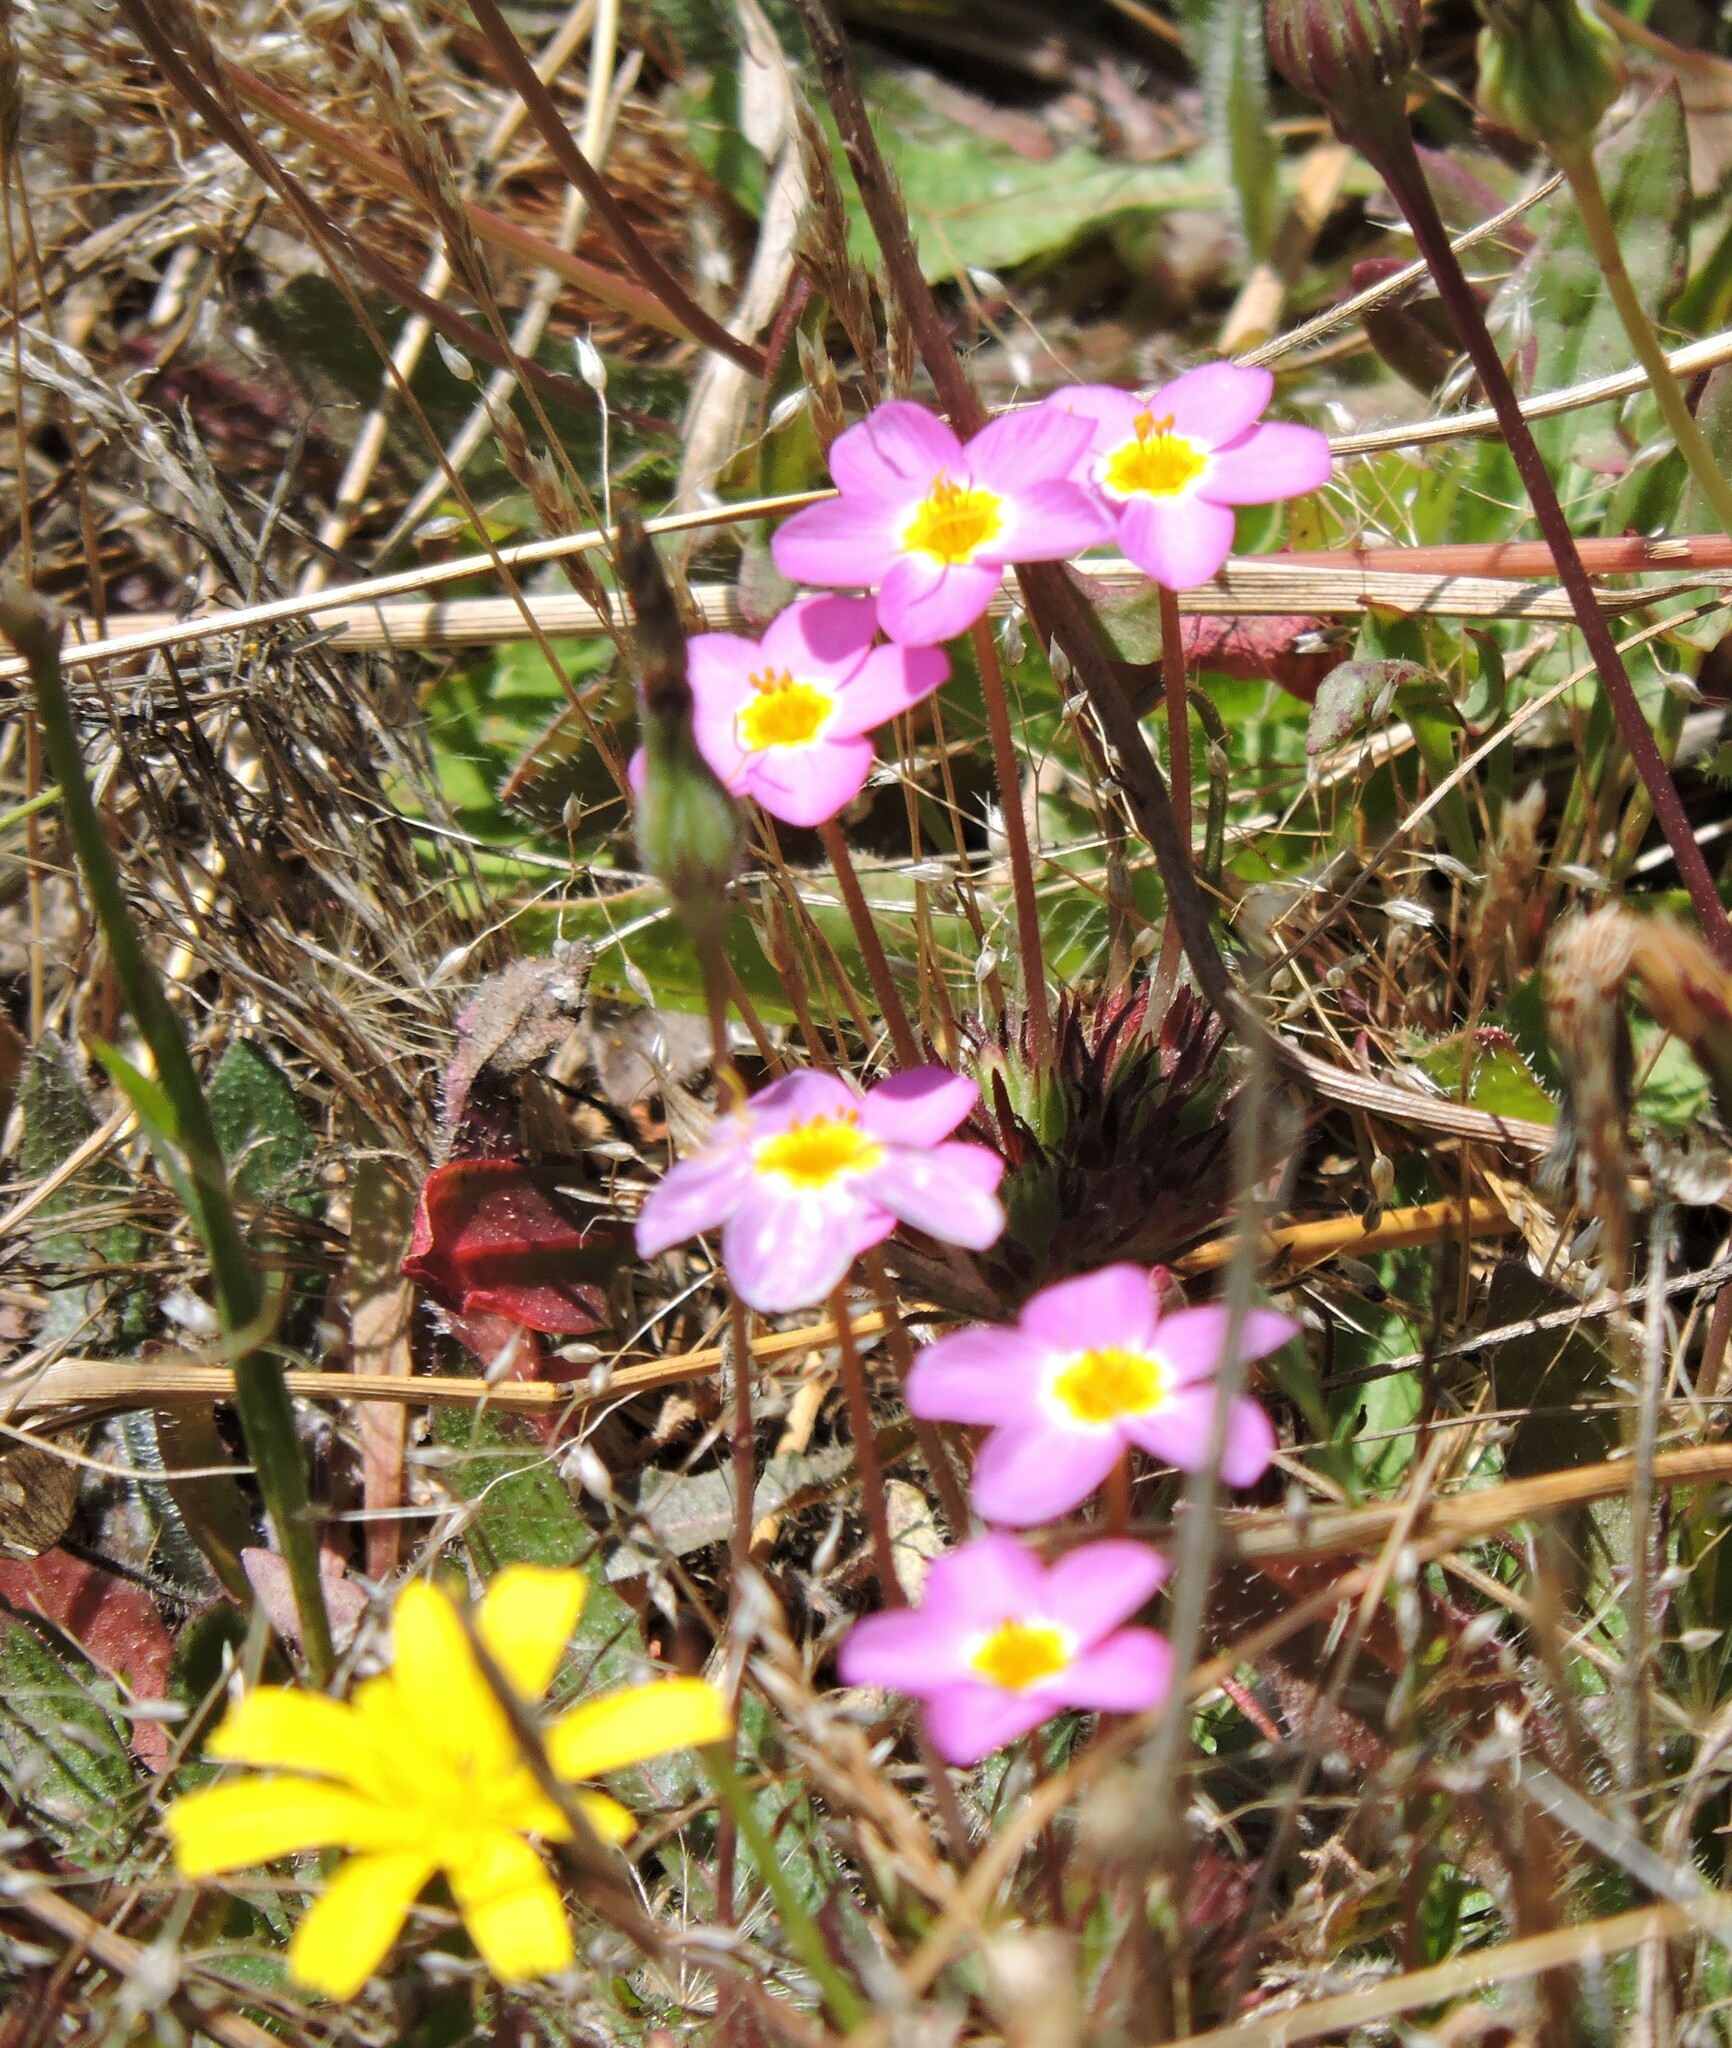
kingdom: Plantae
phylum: Tracheophyta
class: Magnoliopsida
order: Ericales
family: Polemoniaceae
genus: Leptosiphon
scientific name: Leptosiphon parviflorus
